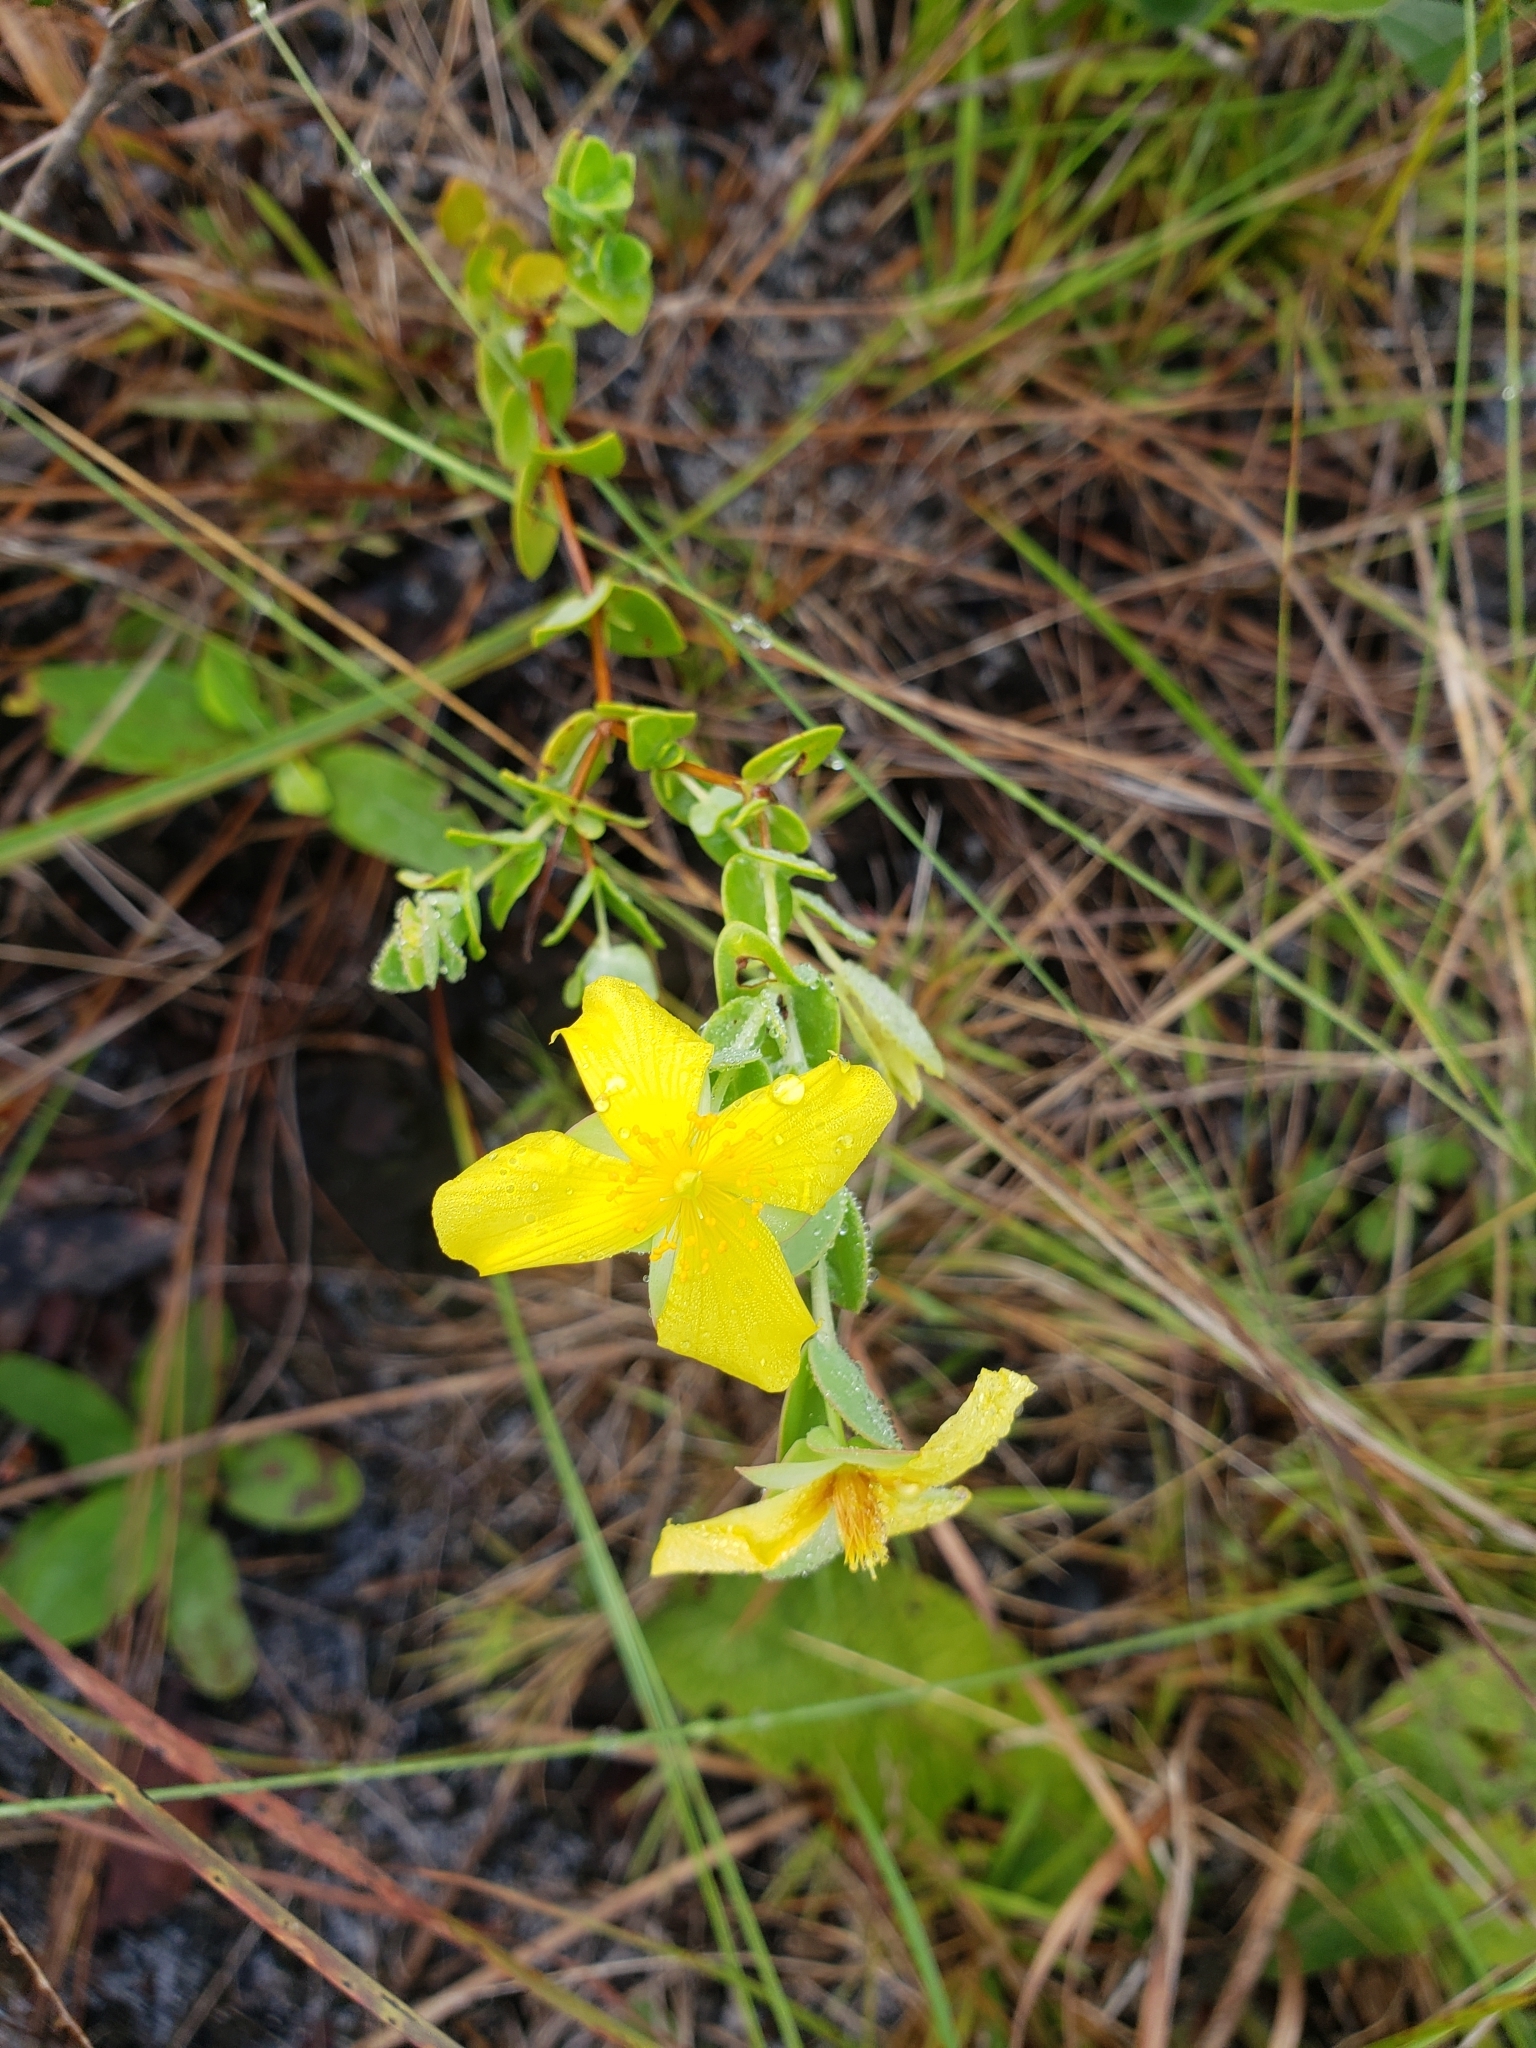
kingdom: Plantae
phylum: Tracheophyta
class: Magnoliopsida
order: Malpighiales
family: Hypericaceae
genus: Hypericum
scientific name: Hypericum tetrapetalum
